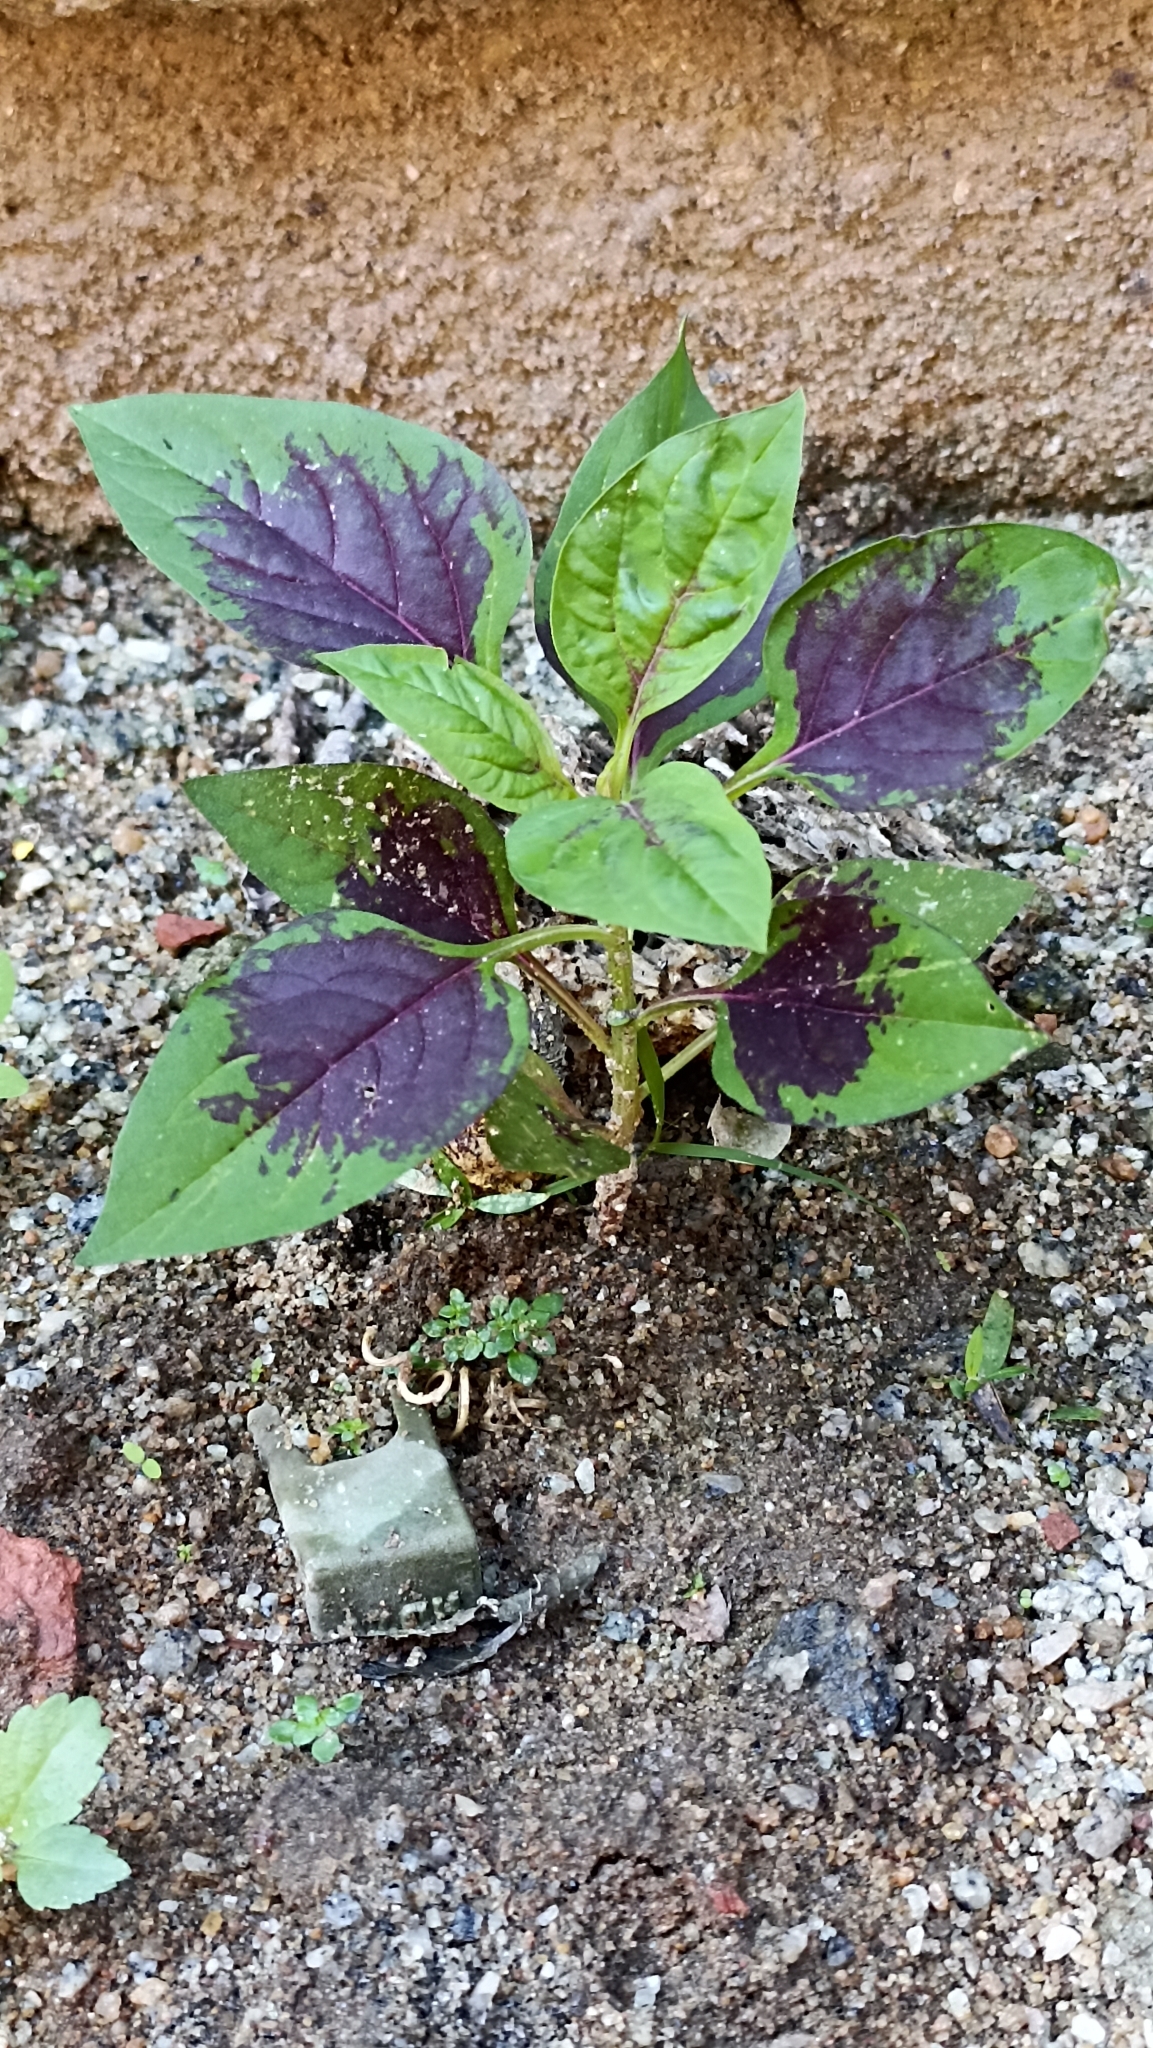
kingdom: Plantae
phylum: Tracheophyta
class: Magnoliopsida
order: Caryophyllales
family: Amaranthaceae
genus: Celosia
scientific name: Celosia argentea
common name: Feather cockscomb
